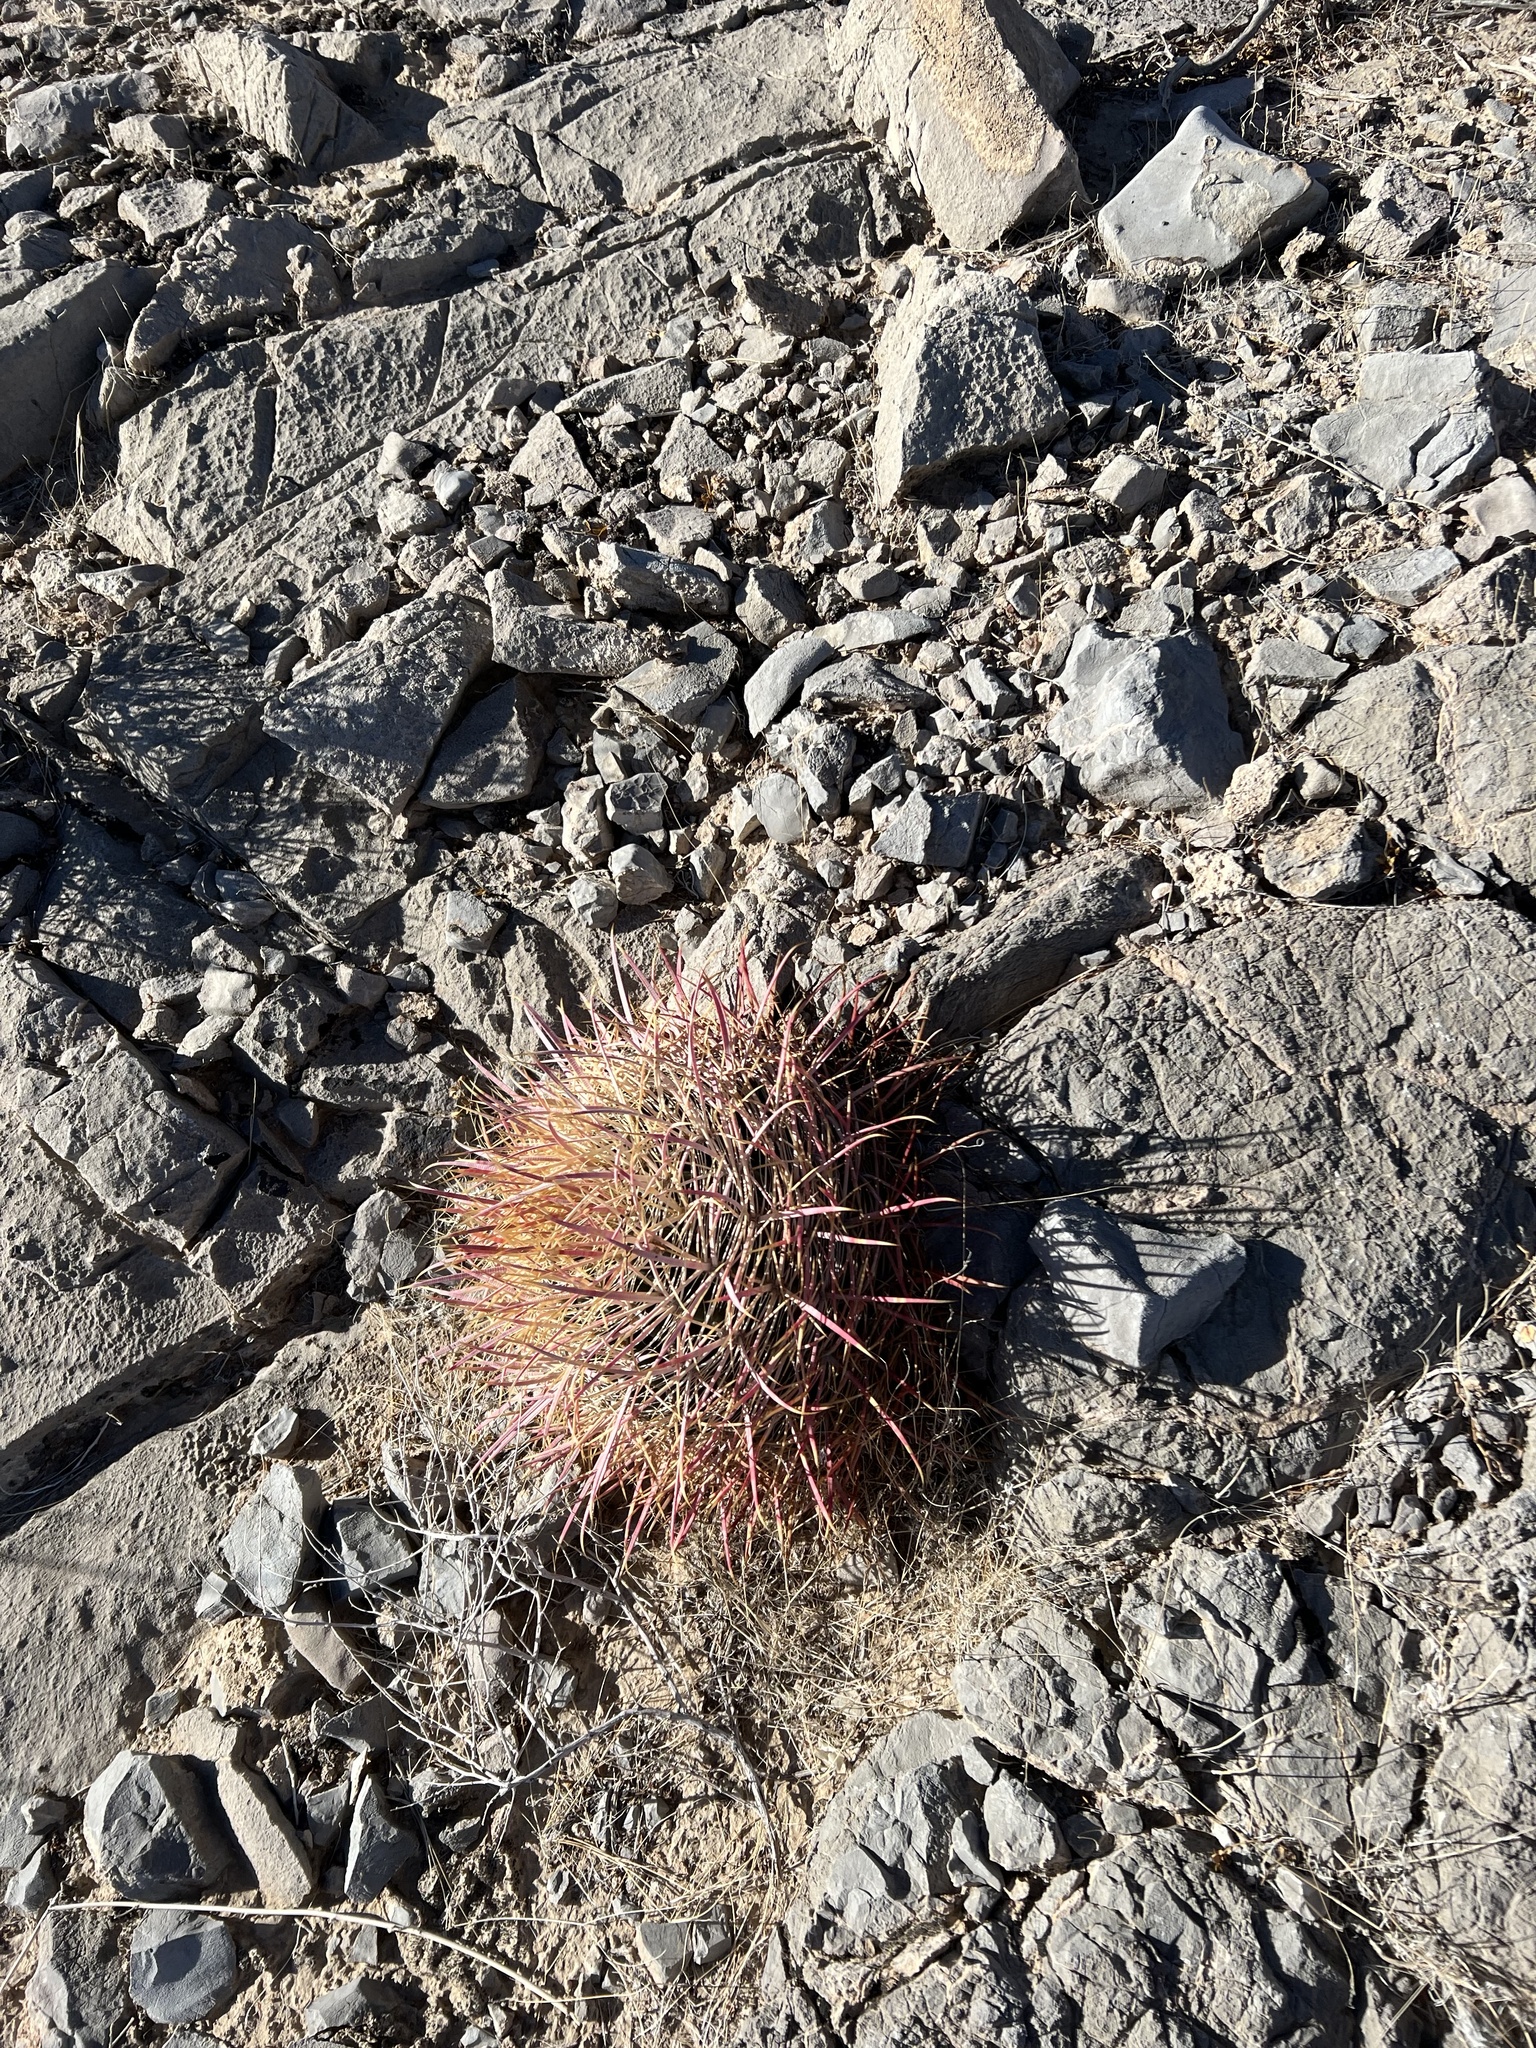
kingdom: Plantae
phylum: Tracheophyta
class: Magnoliopsida
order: Caryophyllales
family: Cactaceae
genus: Ferocactus
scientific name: Ferocactus cylindraceus
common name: California barrel cactus
